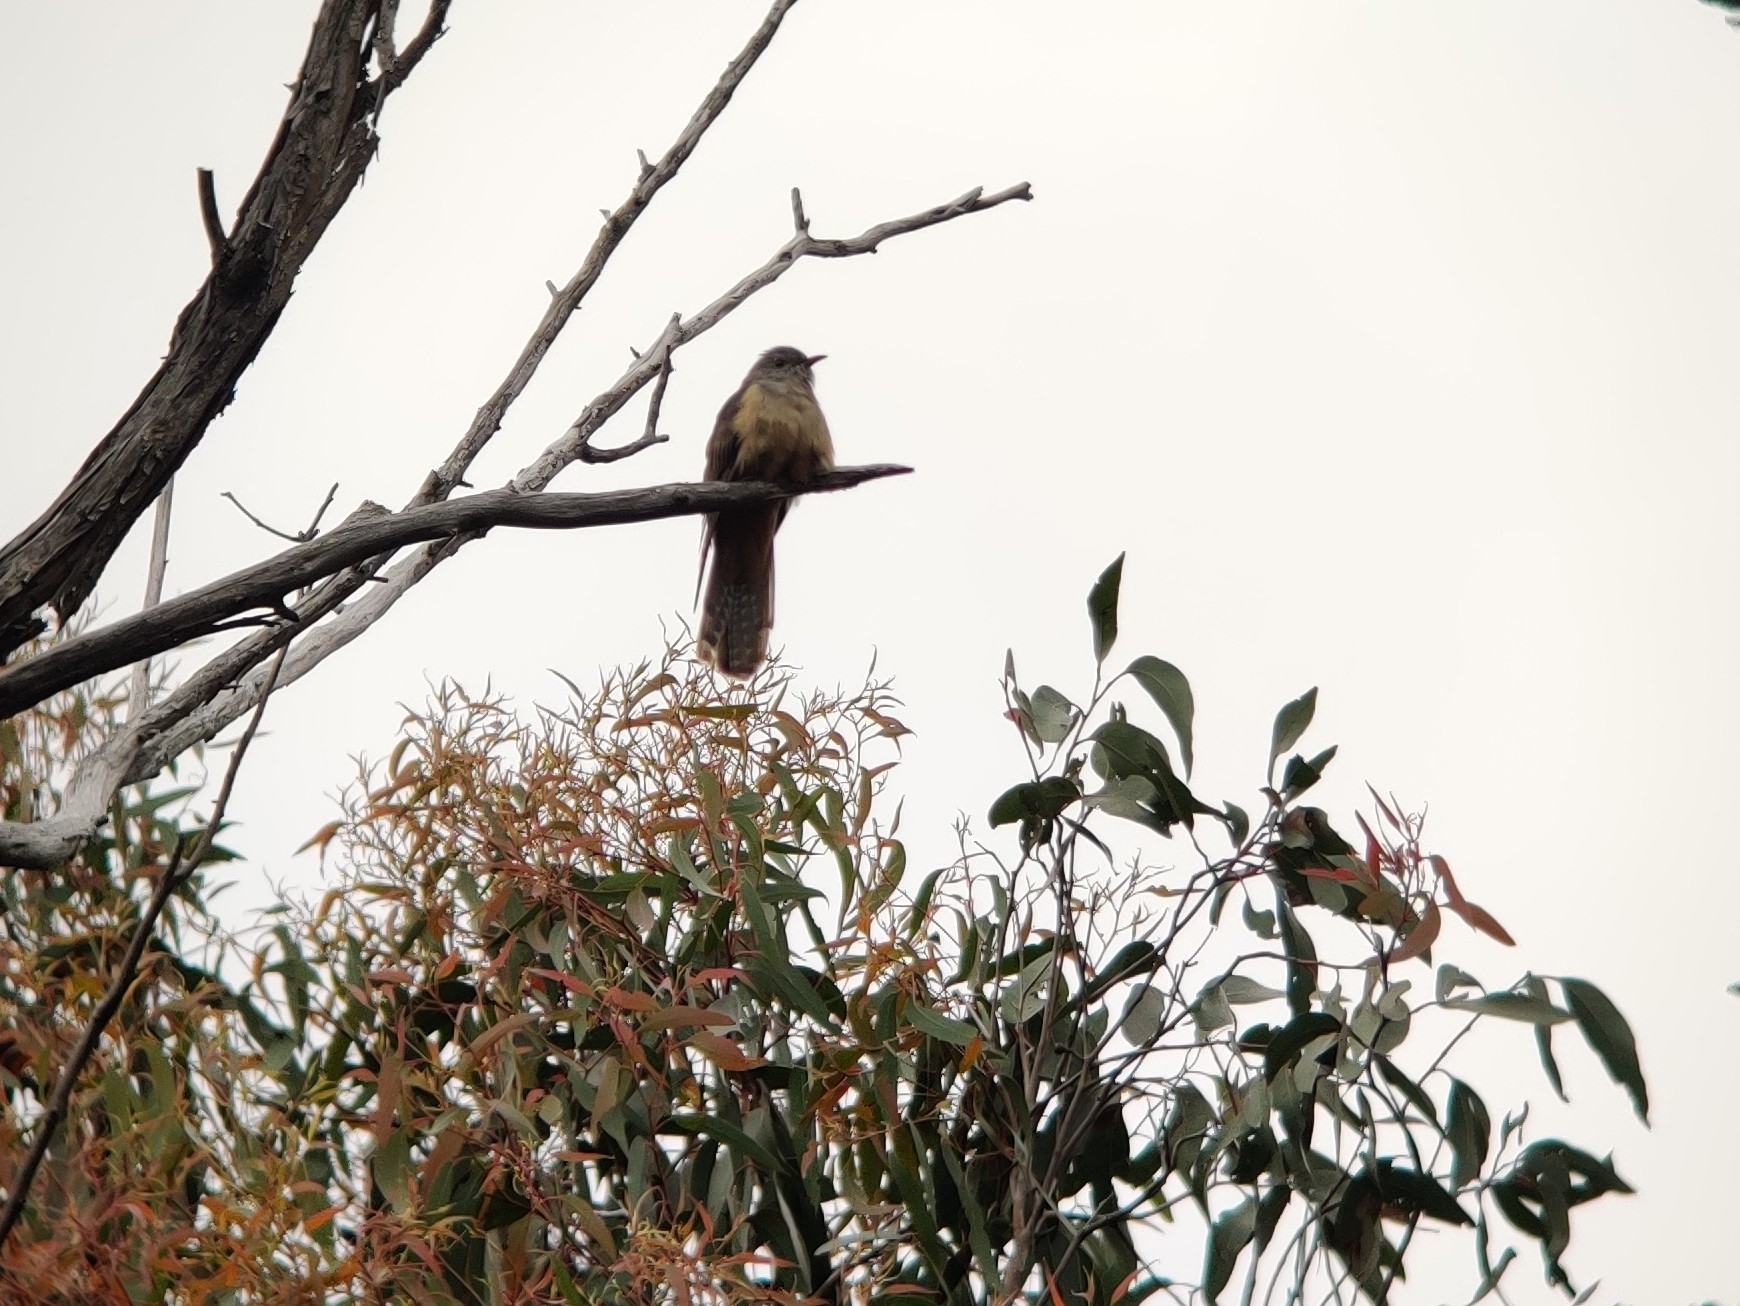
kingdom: Animalia
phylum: Chordata
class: Aves
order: Cuculiformes
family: Cuculidae
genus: Cacomantis
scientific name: Cacomantis variolosus
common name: Brush cuckoo
